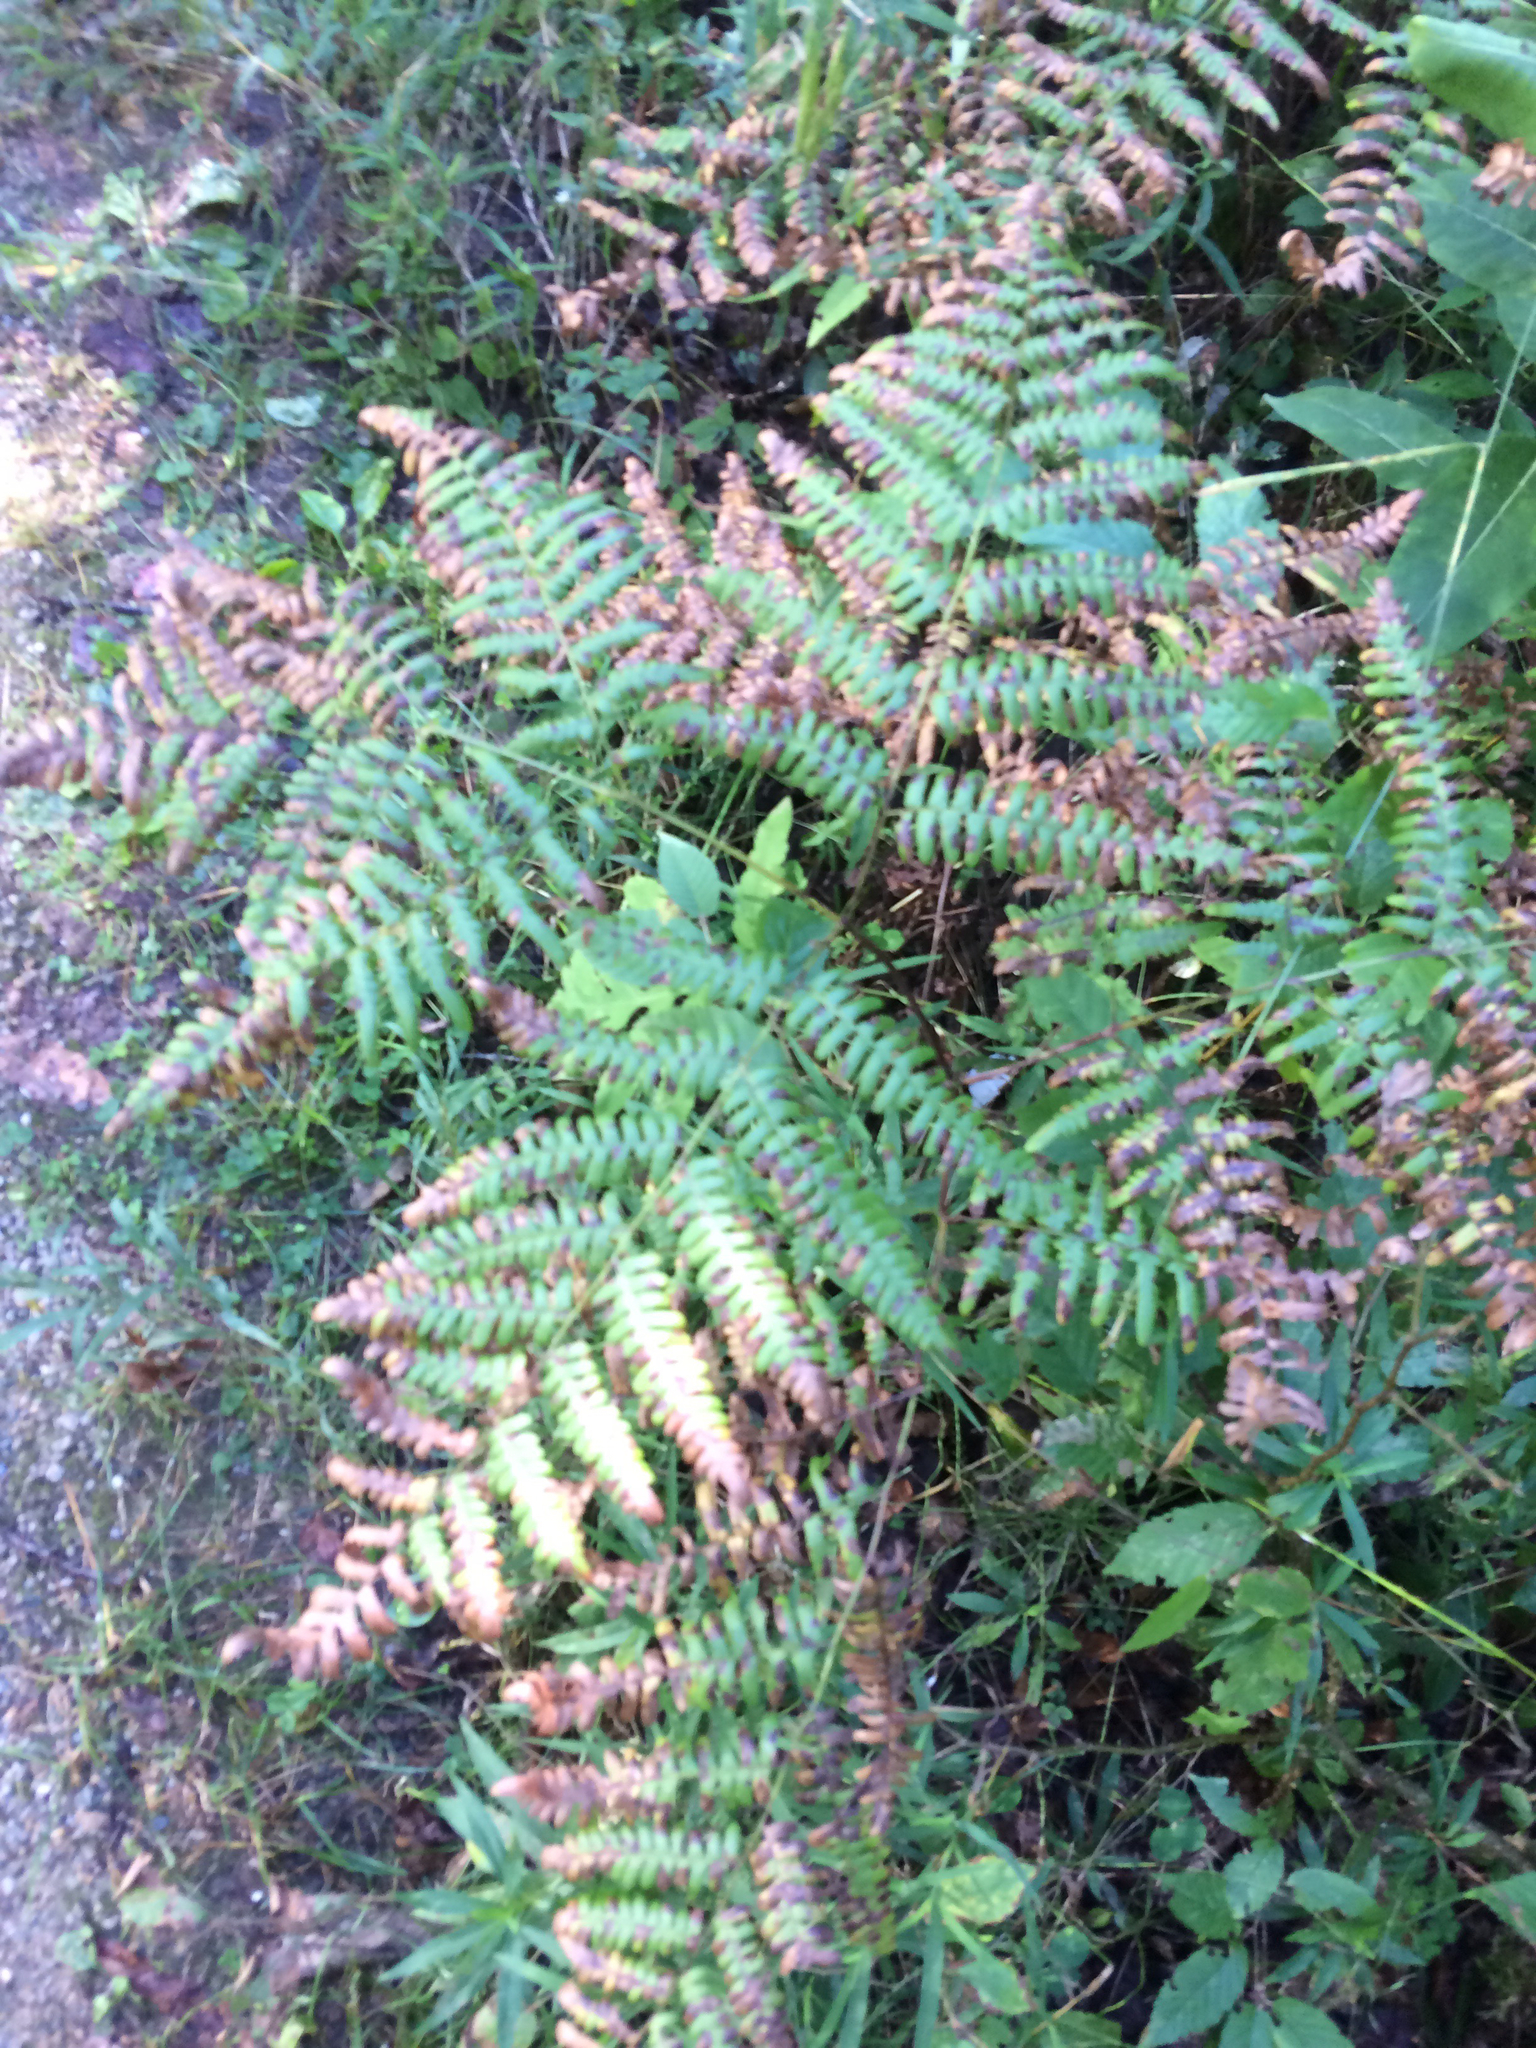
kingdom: Plantae
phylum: Tracheophyta
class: Polypodiopsida
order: Polypodiales
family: Dennstaedtiaceae
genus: Pteridium
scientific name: Pteridium aquilinum
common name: Bracken
